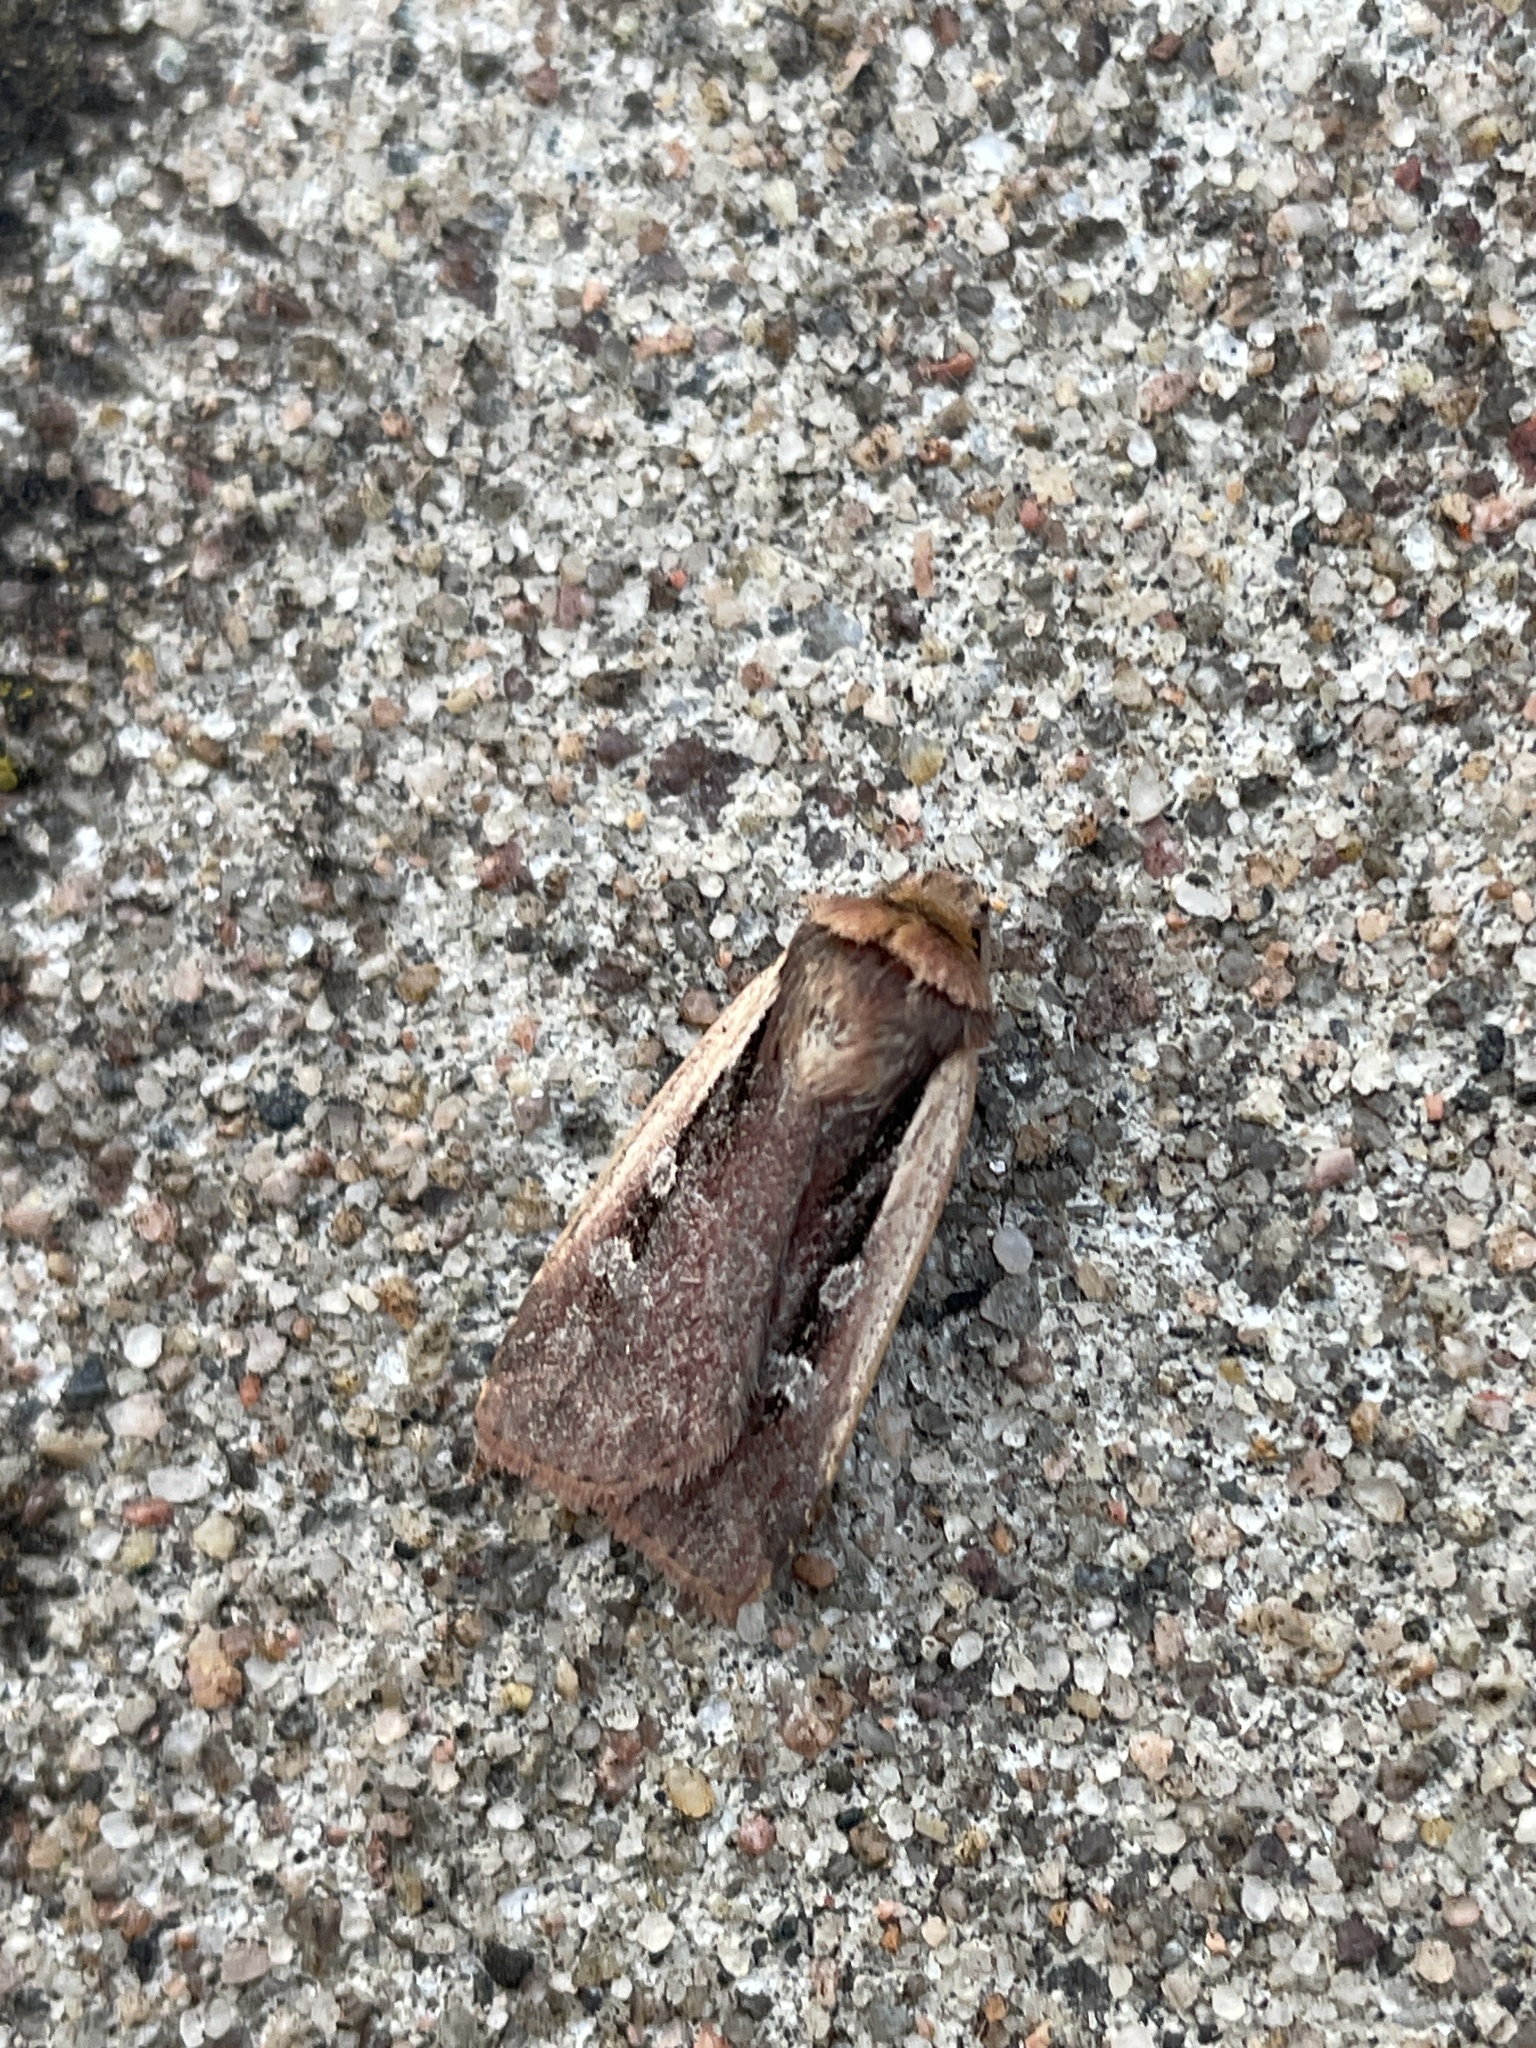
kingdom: Animalia
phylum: Arthropoda
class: Insecta
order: Lepidoptera
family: Noctuidae
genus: Ochropleura
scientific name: Ochropleura plecta
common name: Flame shoulder
